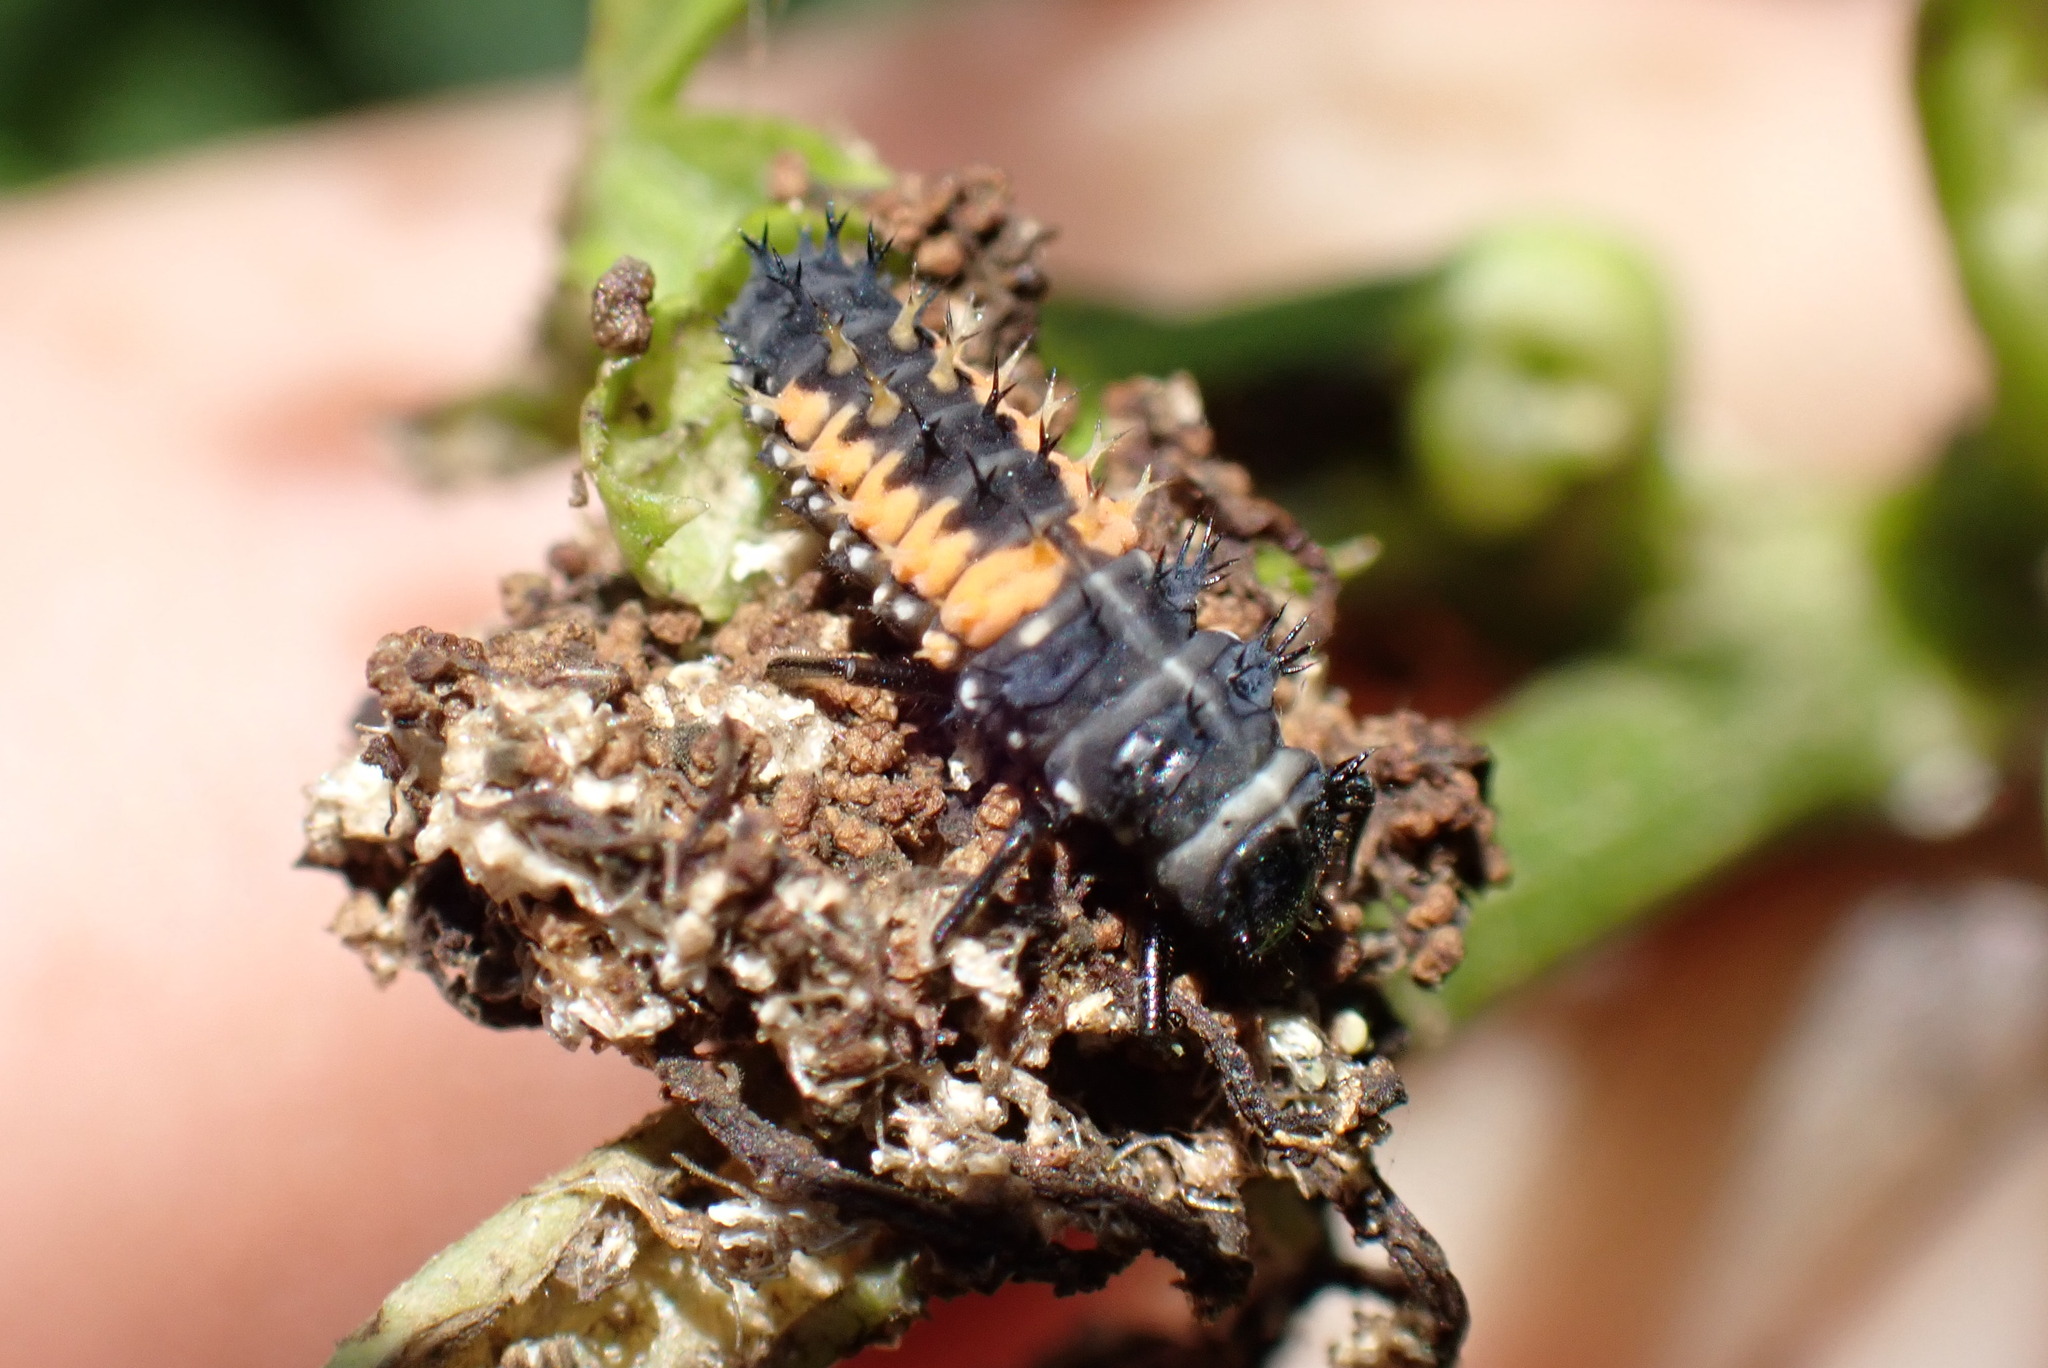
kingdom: Animalia
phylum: Arthropoda
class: Insecta
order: Coleoptera
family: Coccinellidae
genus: Harmonia
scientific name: Harmonia axyridis
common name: Harlequin ladybird
